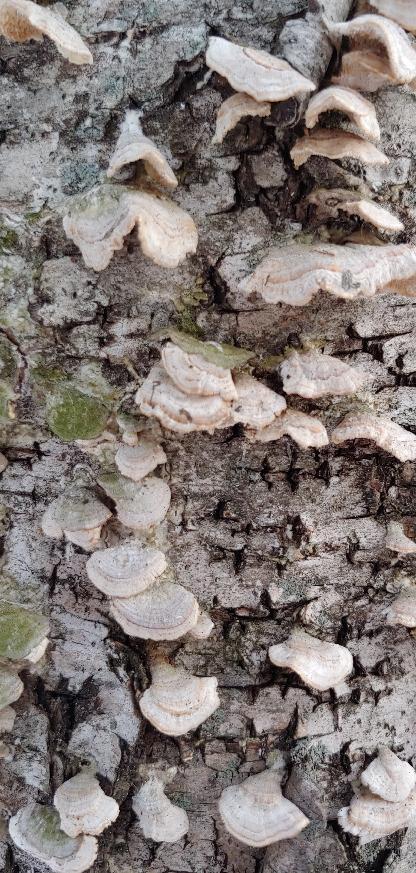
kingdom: Fungi
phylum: Basidiomycota
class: Agaricomycetes
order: Hymenochaetales
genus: Trichaptum
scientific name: Trichaptum biforme
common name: Violet-toothed polypore
